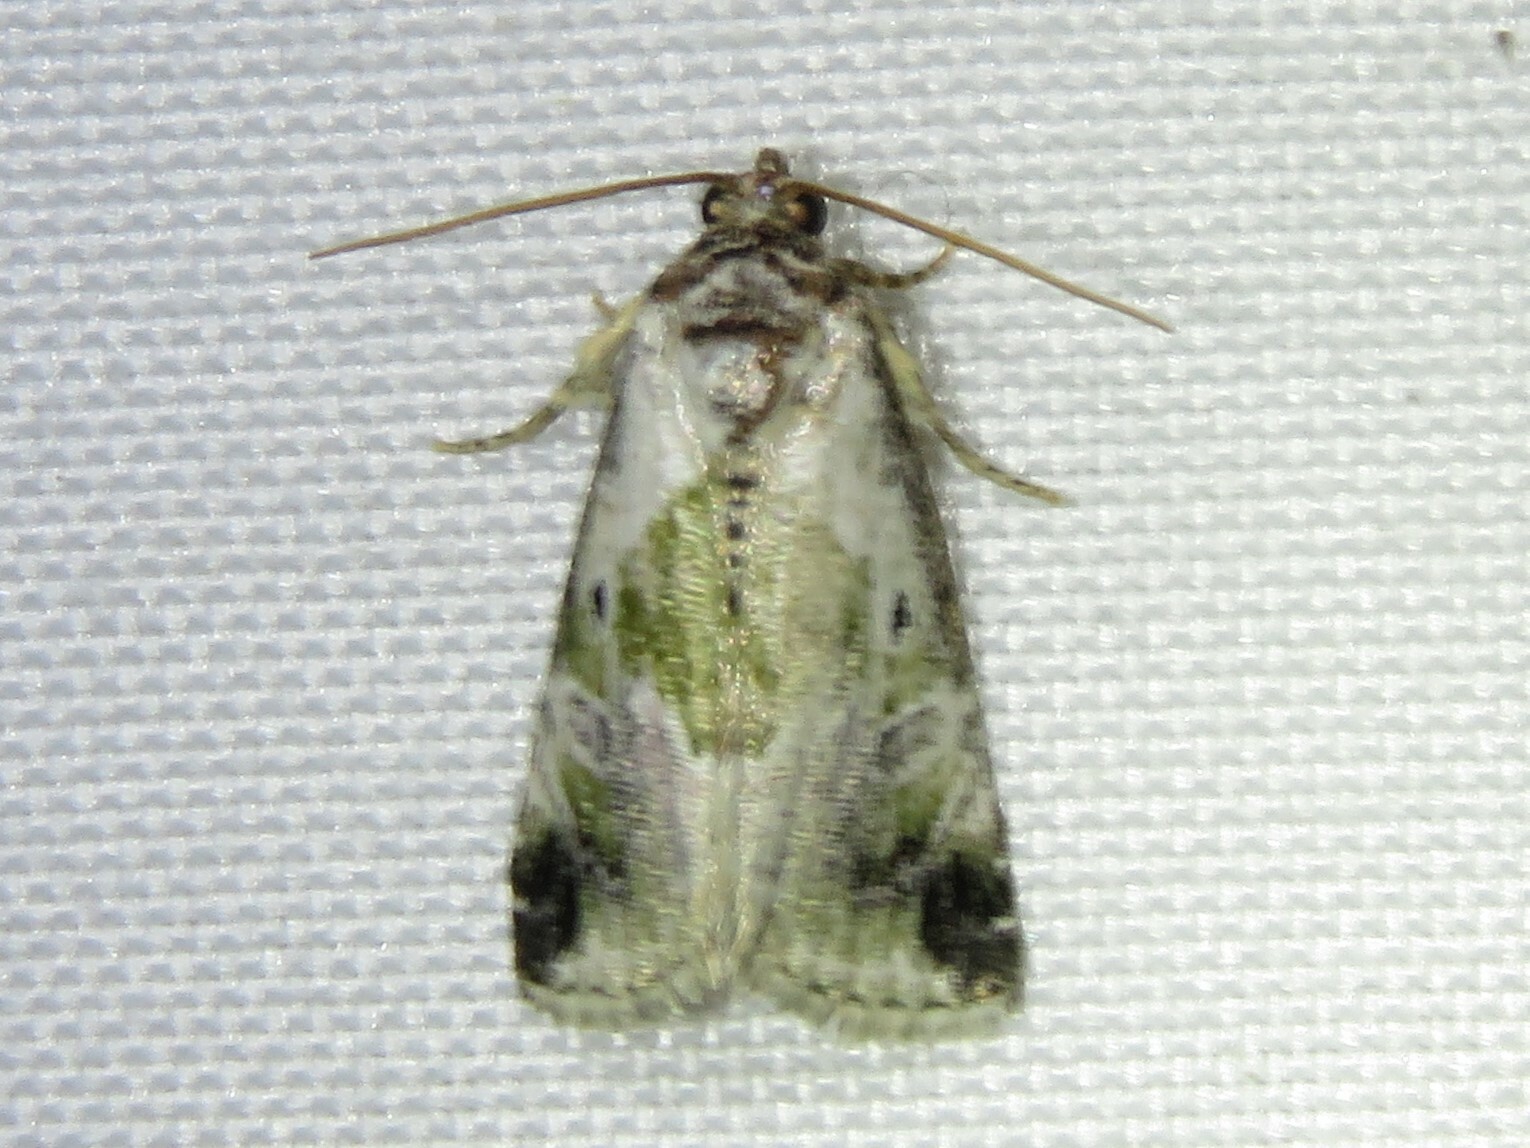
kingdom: Animalia
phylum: Arthropoda
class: Insecta
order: Lepidoptera
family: Noctuidae
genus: Maliattha
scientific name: Maliattha synochitis
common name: Black-dotted glyph
